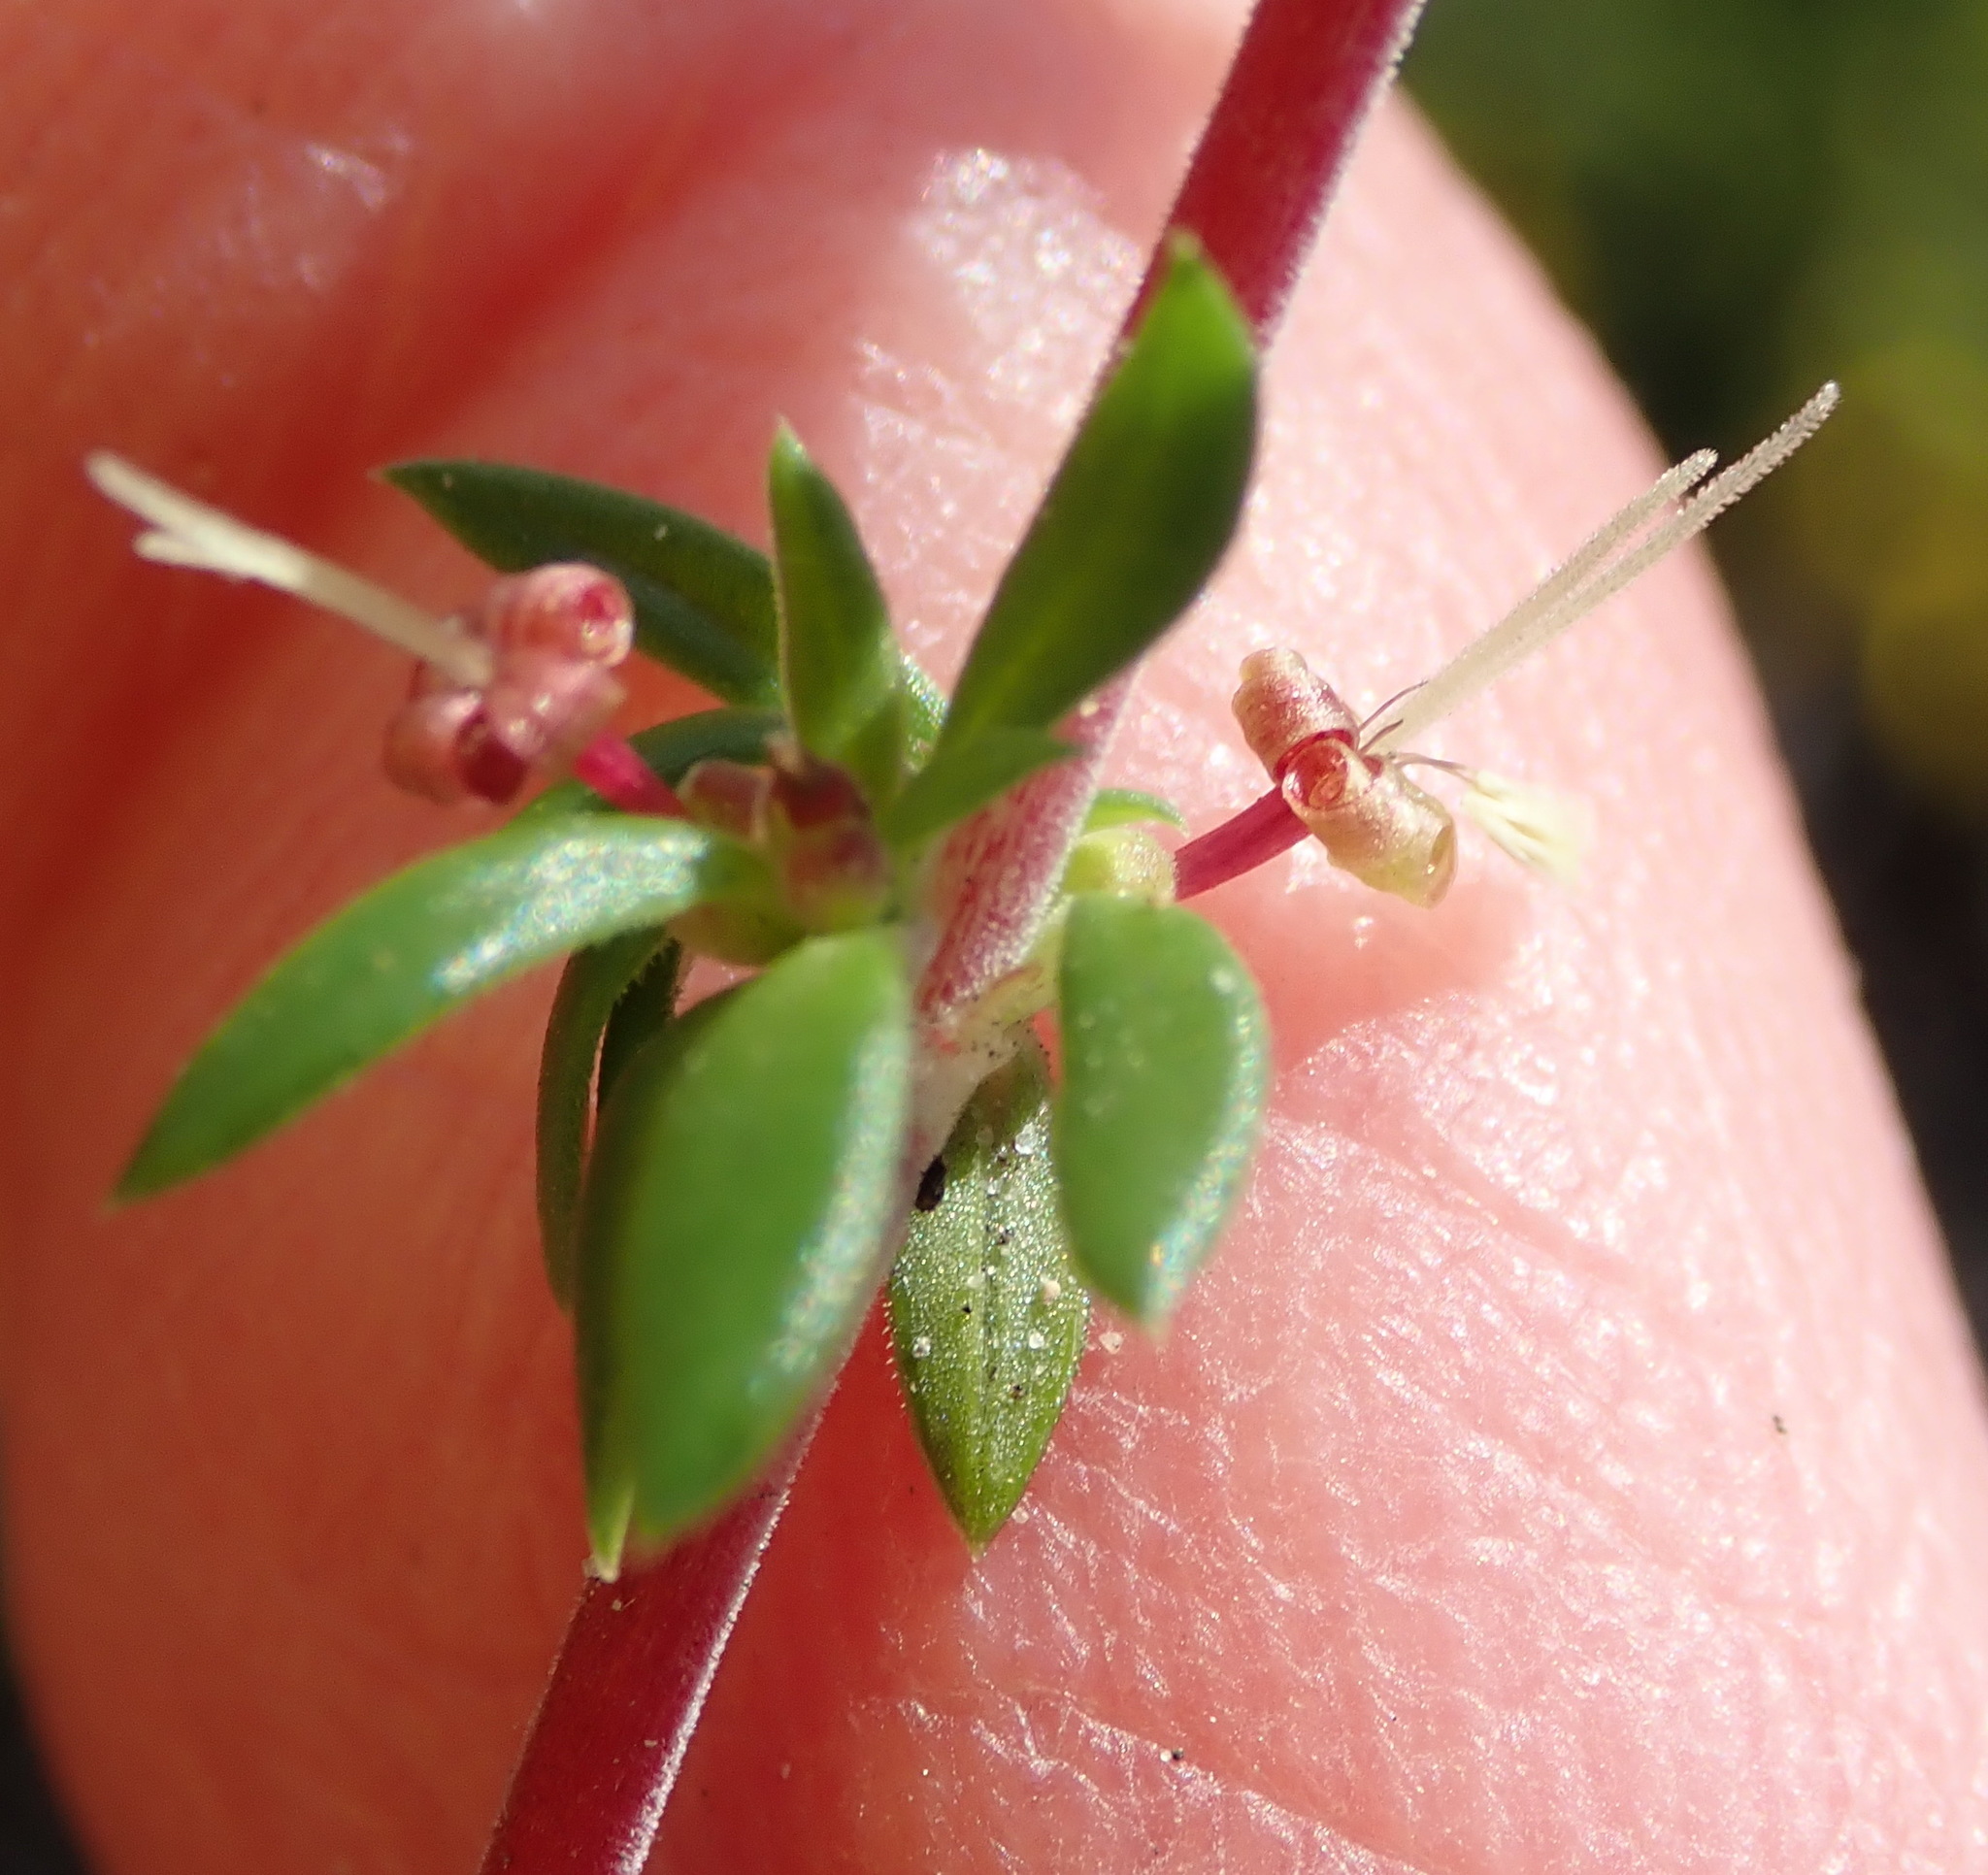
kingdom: Plantae
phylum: Tracheophyta
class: Magnoliopsida
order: Gentianales
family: Rubiaceae
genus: Anthospermum
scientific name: Anthospermum prostratum
